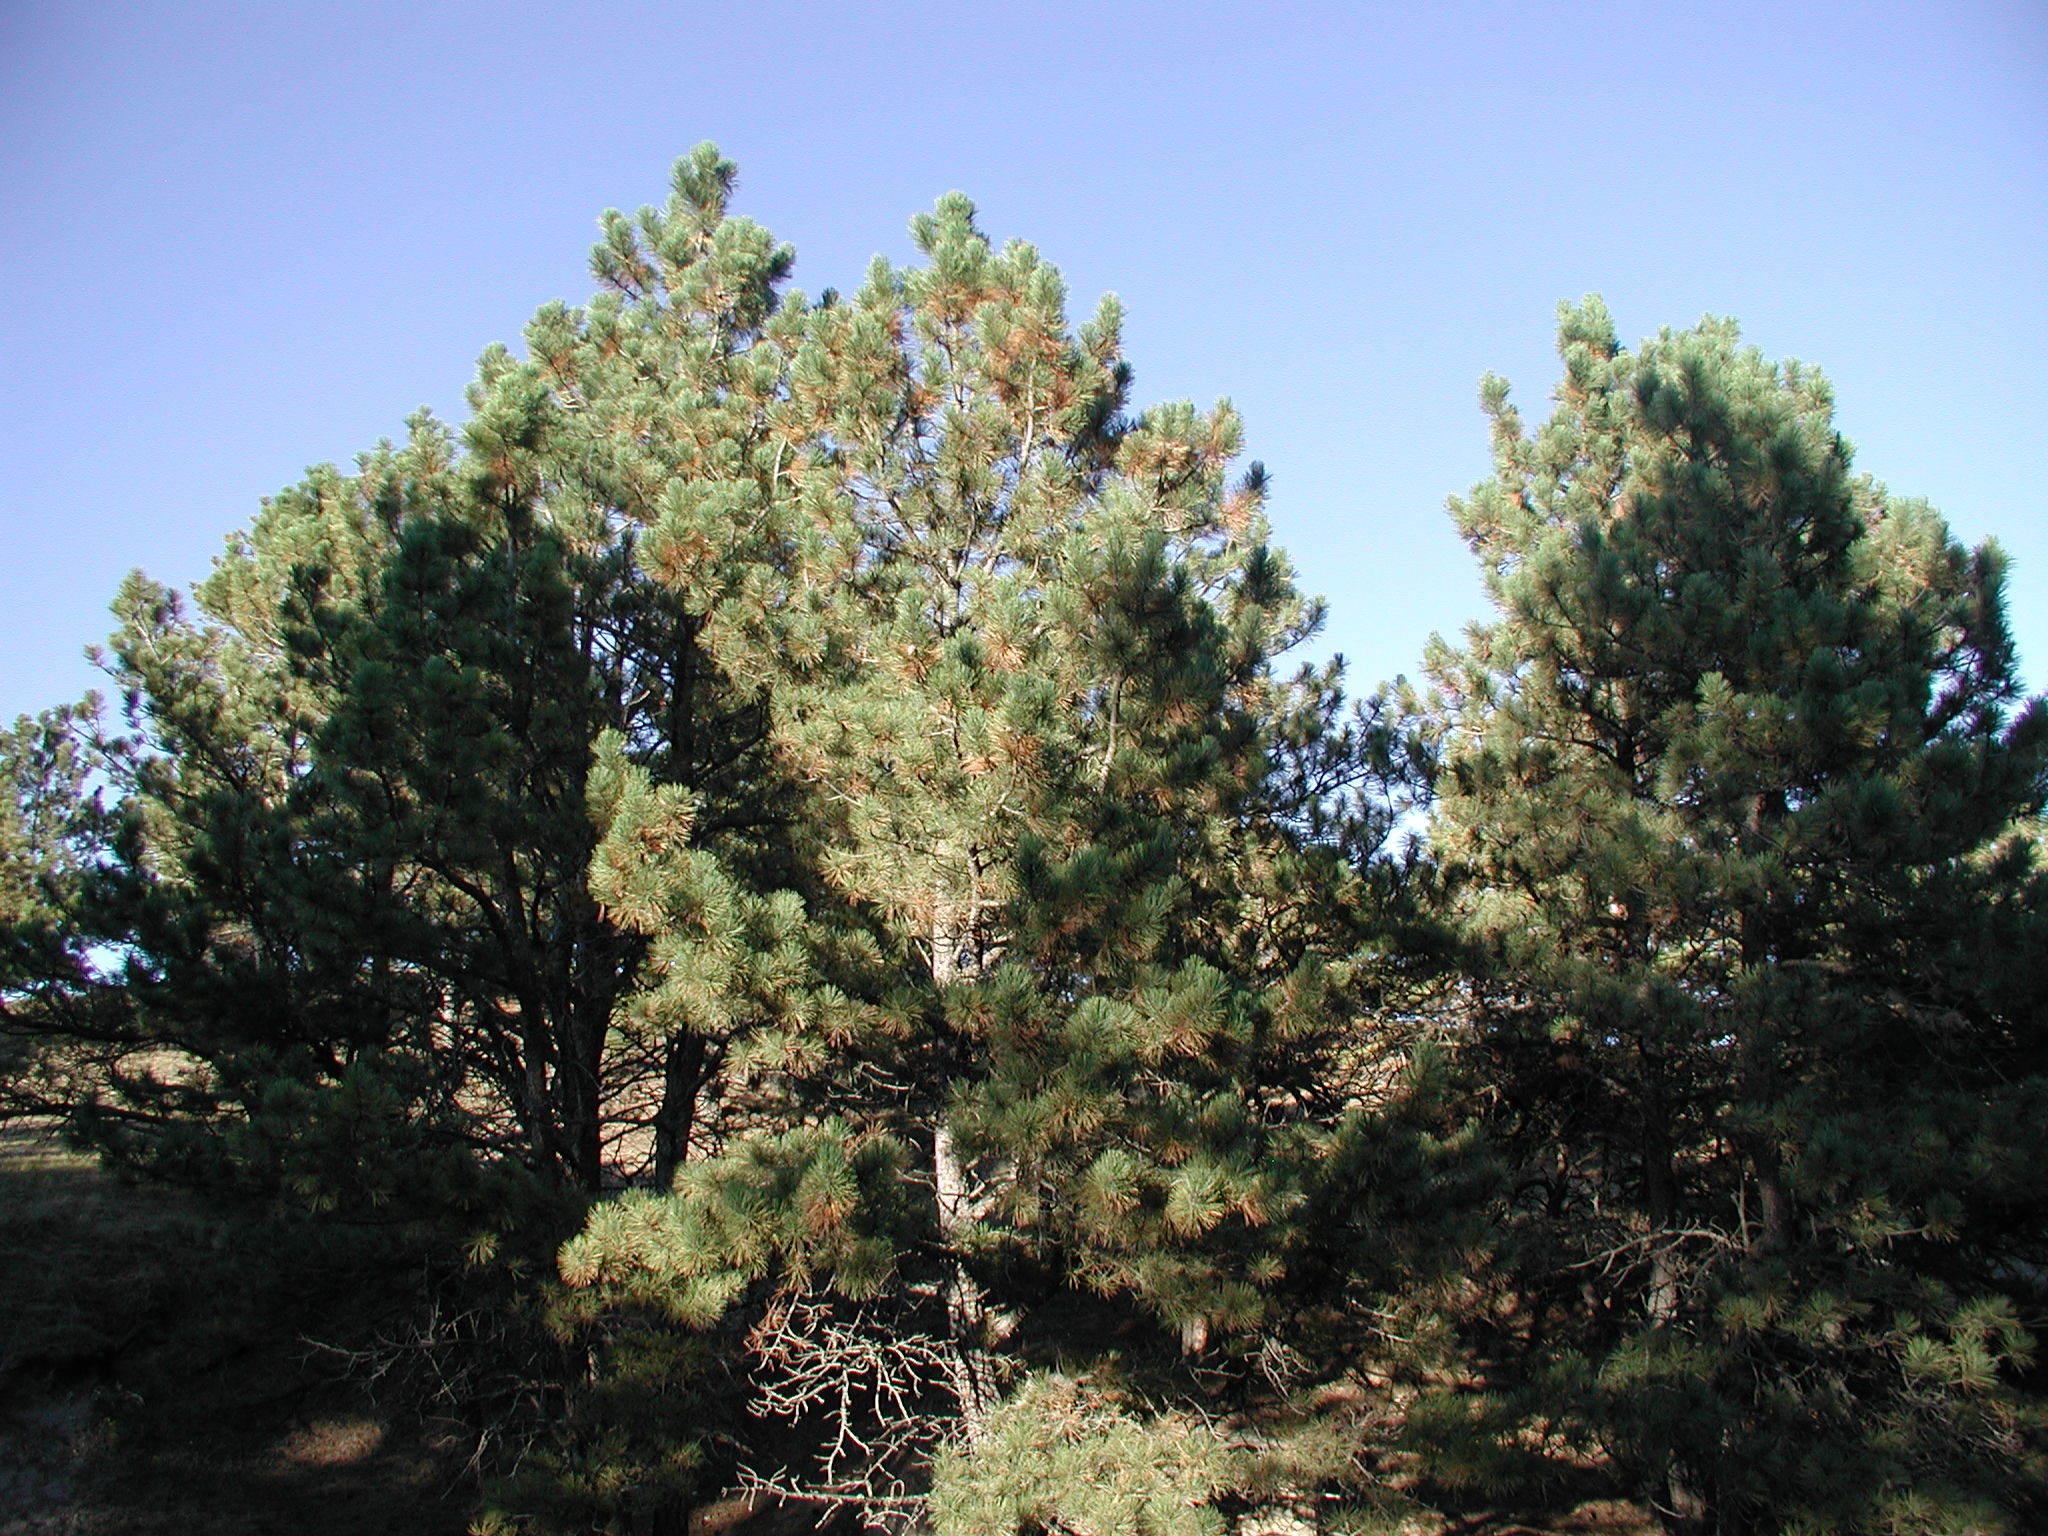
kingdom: Plantae
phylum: Tracheophyta
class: Pinopsida
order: Pinales
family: Pinaceae
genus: Pinus
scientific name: Pinus ponderosa
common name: Western yellow-pine
